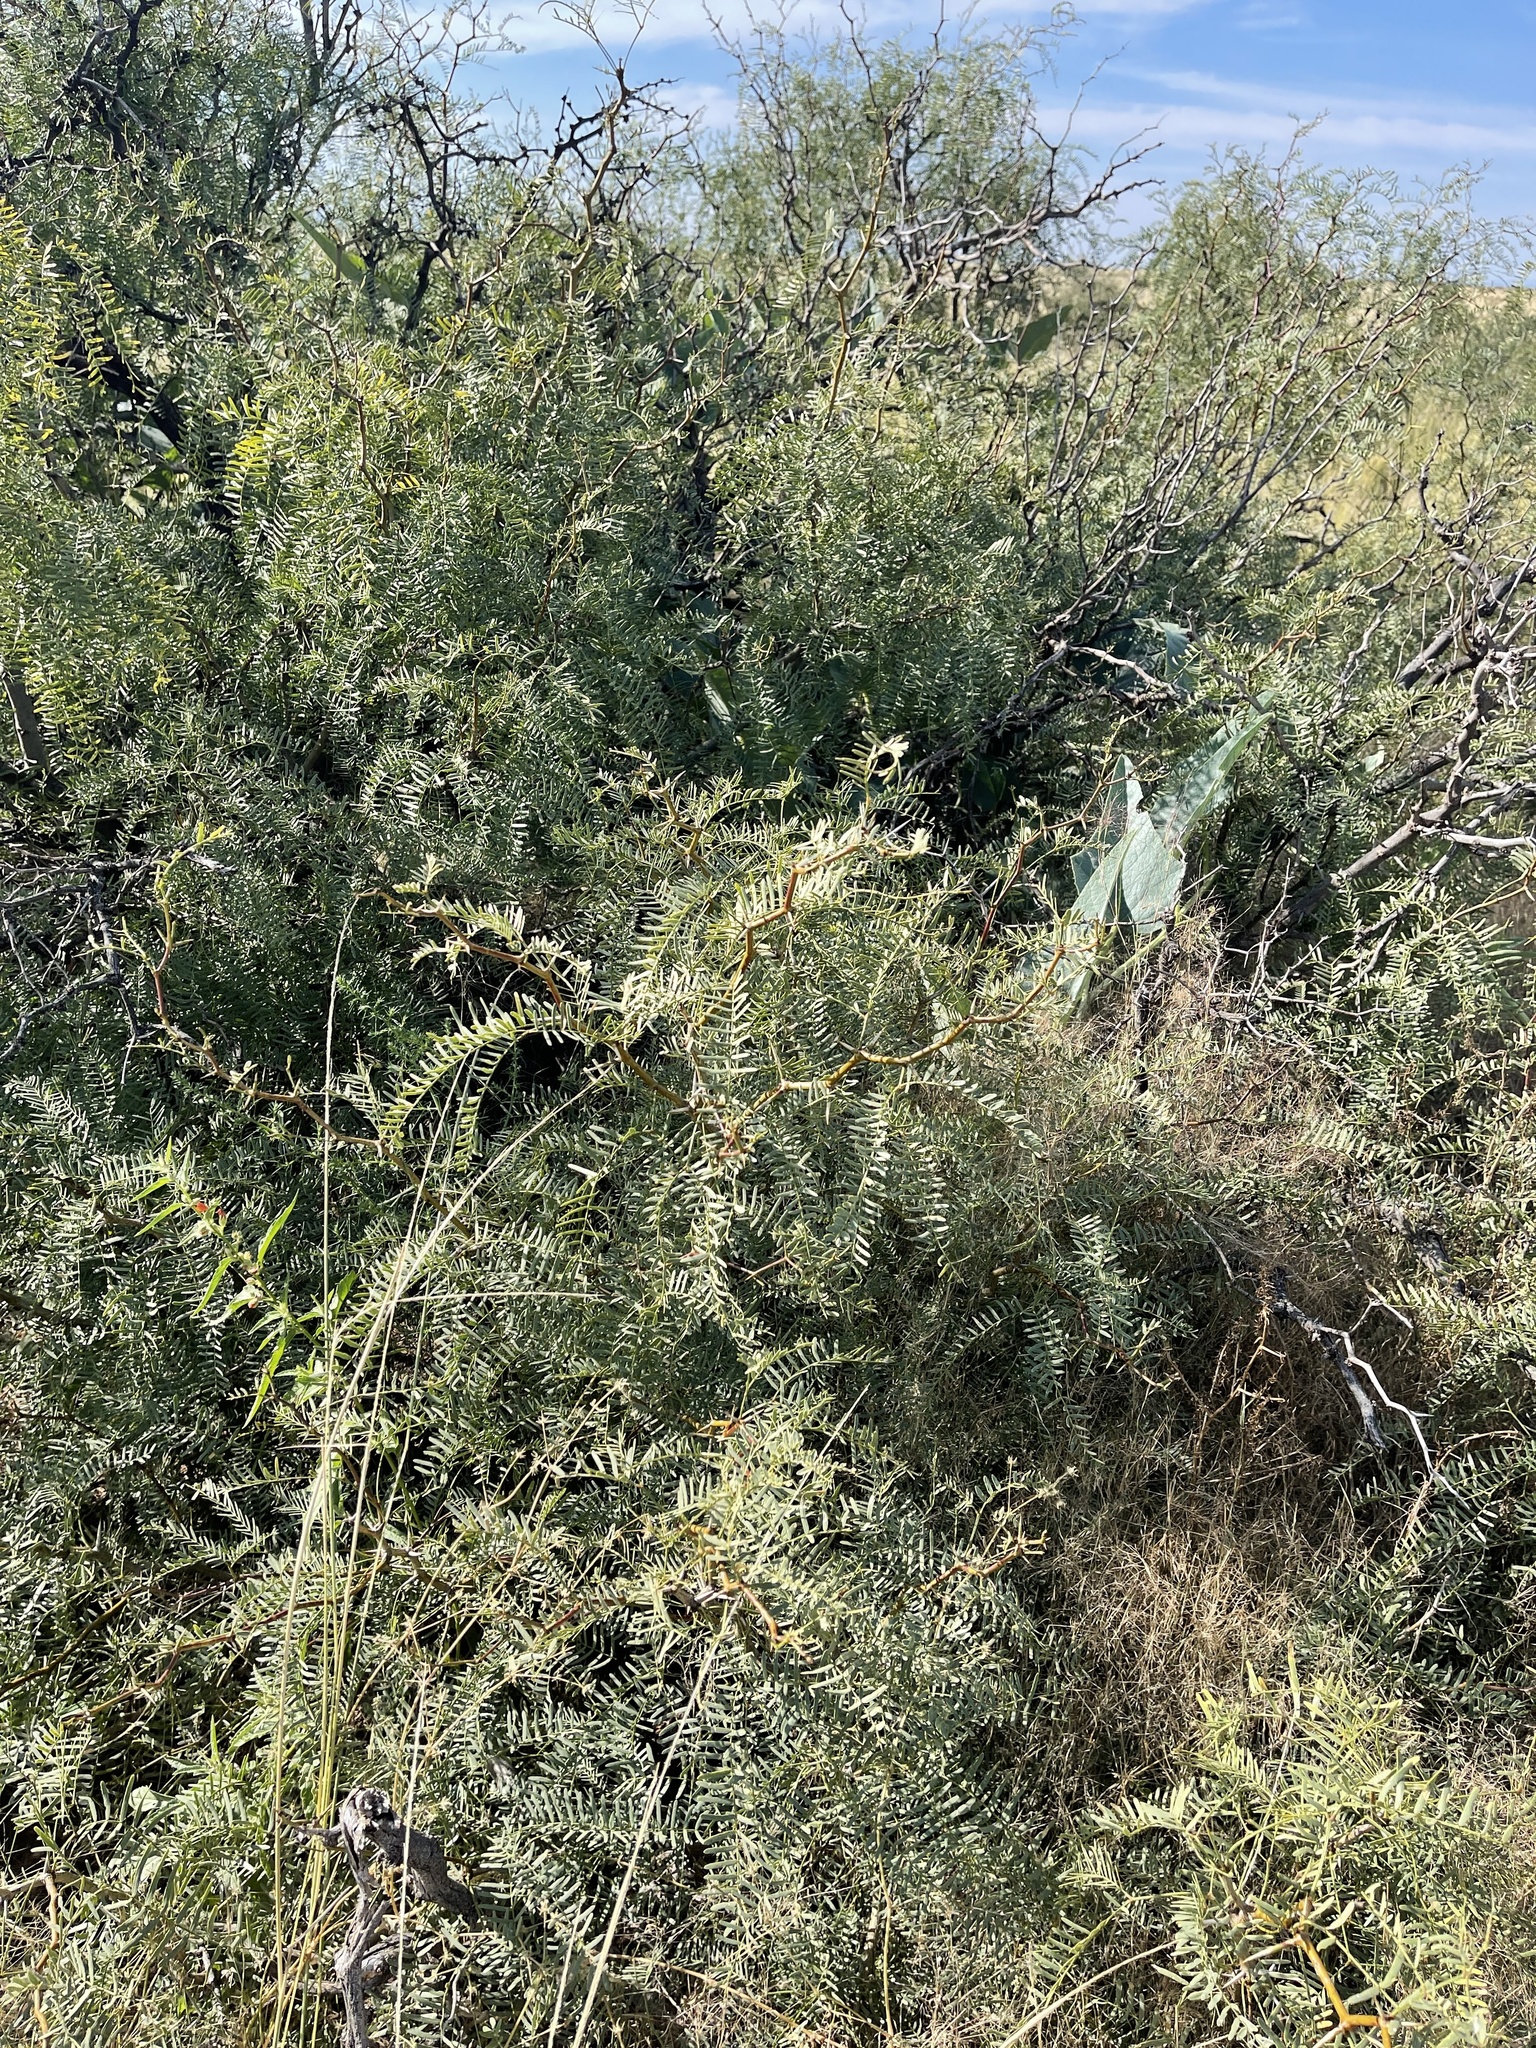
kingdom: Plantae
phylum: Tracheophyta
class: Magnoliopsida
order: Fabales
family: Fabaceae
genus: Prosopis
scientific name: Prosopis glandulosa
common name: Honey mesquite
